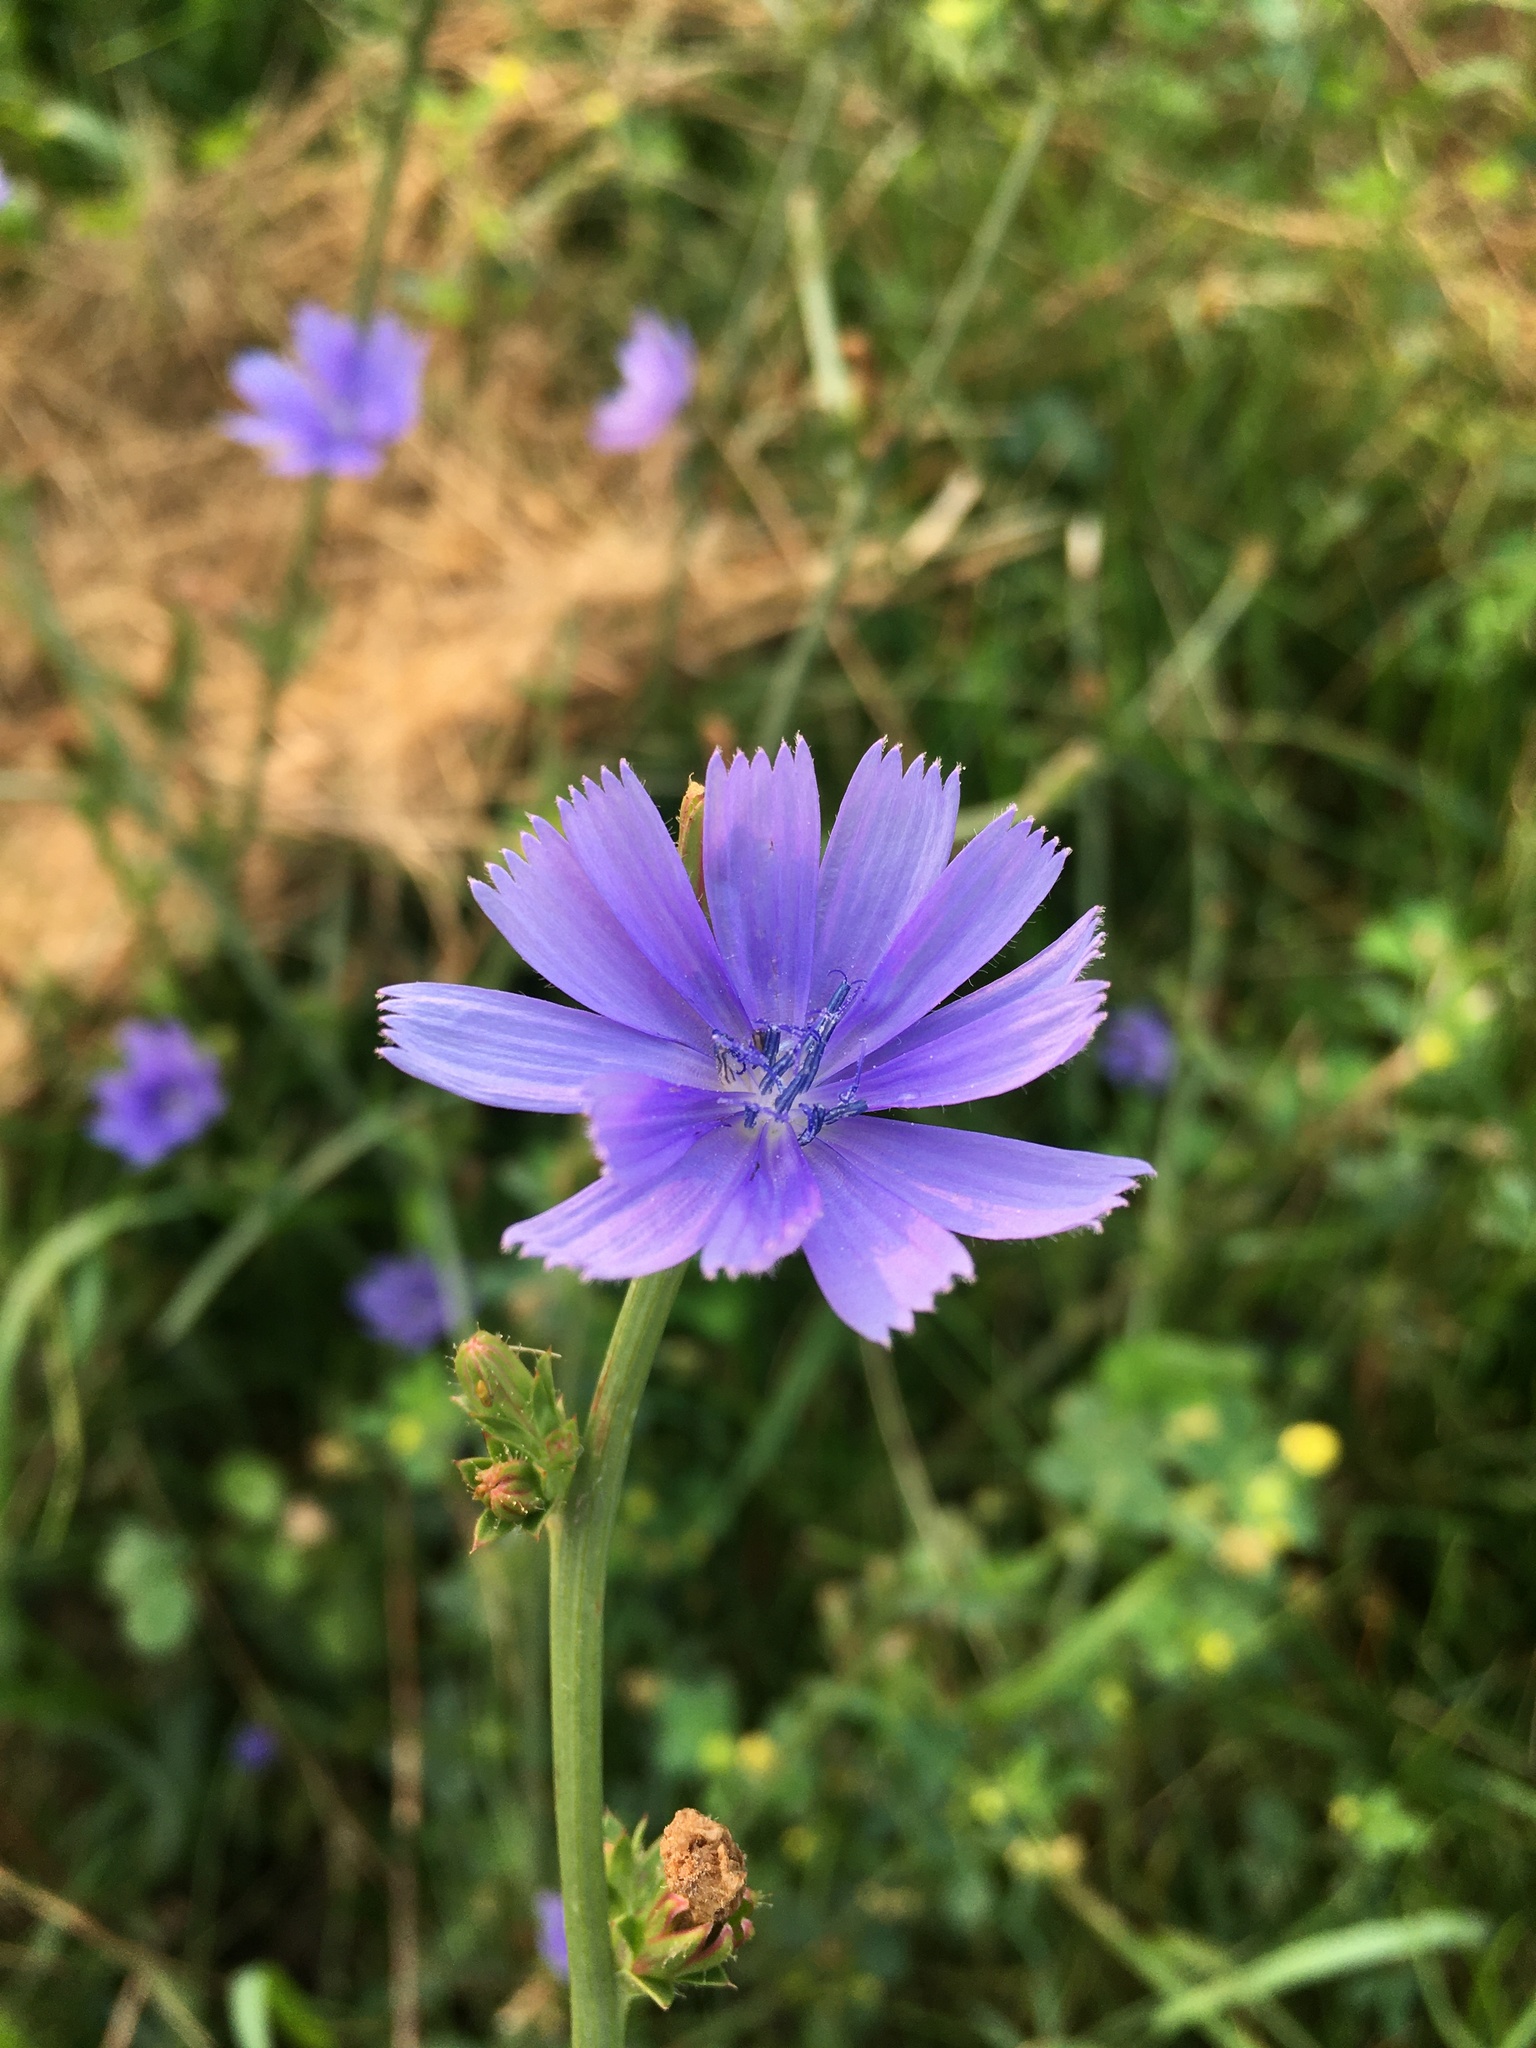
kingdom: Plantae
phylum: Tracheophyta
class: Magnoliopsida
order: Asterales
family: Asteraceae
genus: Cichorium
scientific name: Cichorium intybus
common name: Chicory
